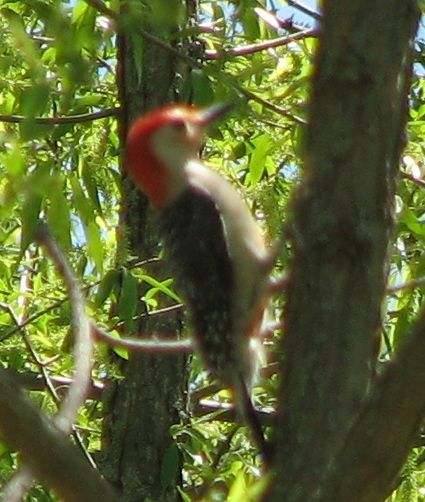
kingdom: Animalia
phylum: Chordata
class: Aves
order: Piciformes
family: Picidae
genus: Melanerpes
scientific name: Melanerpes carolinus
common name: Red-bellied woodpecker
